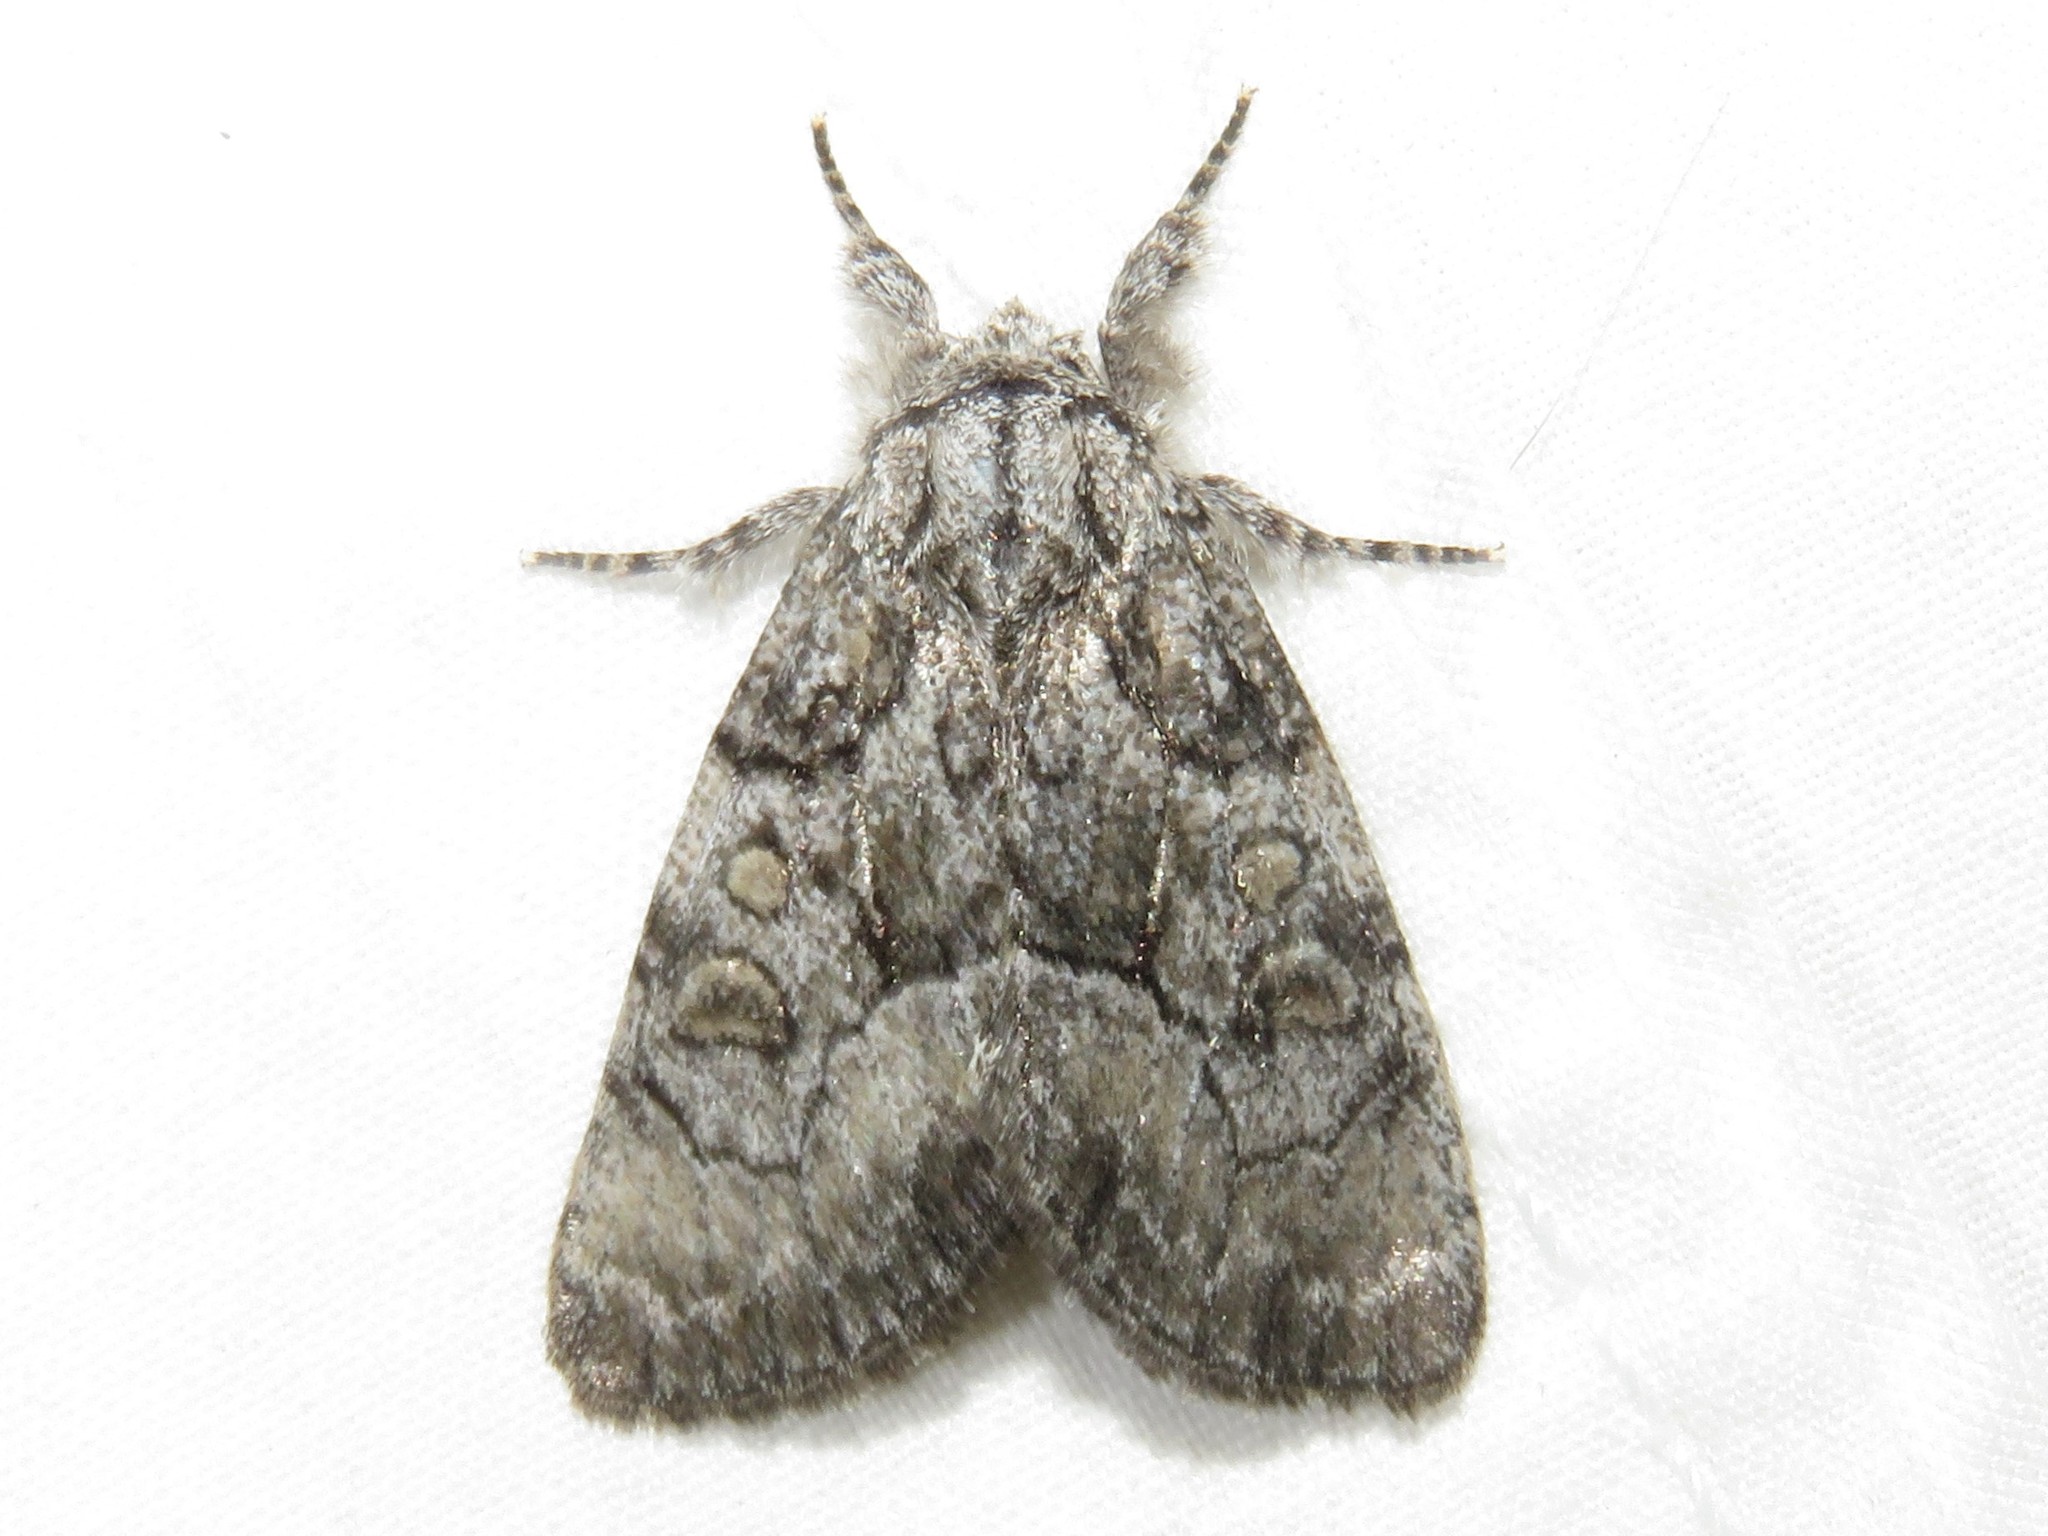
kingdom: Animalia
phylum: Arthropoda
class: Insecta
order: Lepidoptera
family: Noctuidae
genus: Raphia
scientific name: Raphia frater
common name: Brother
